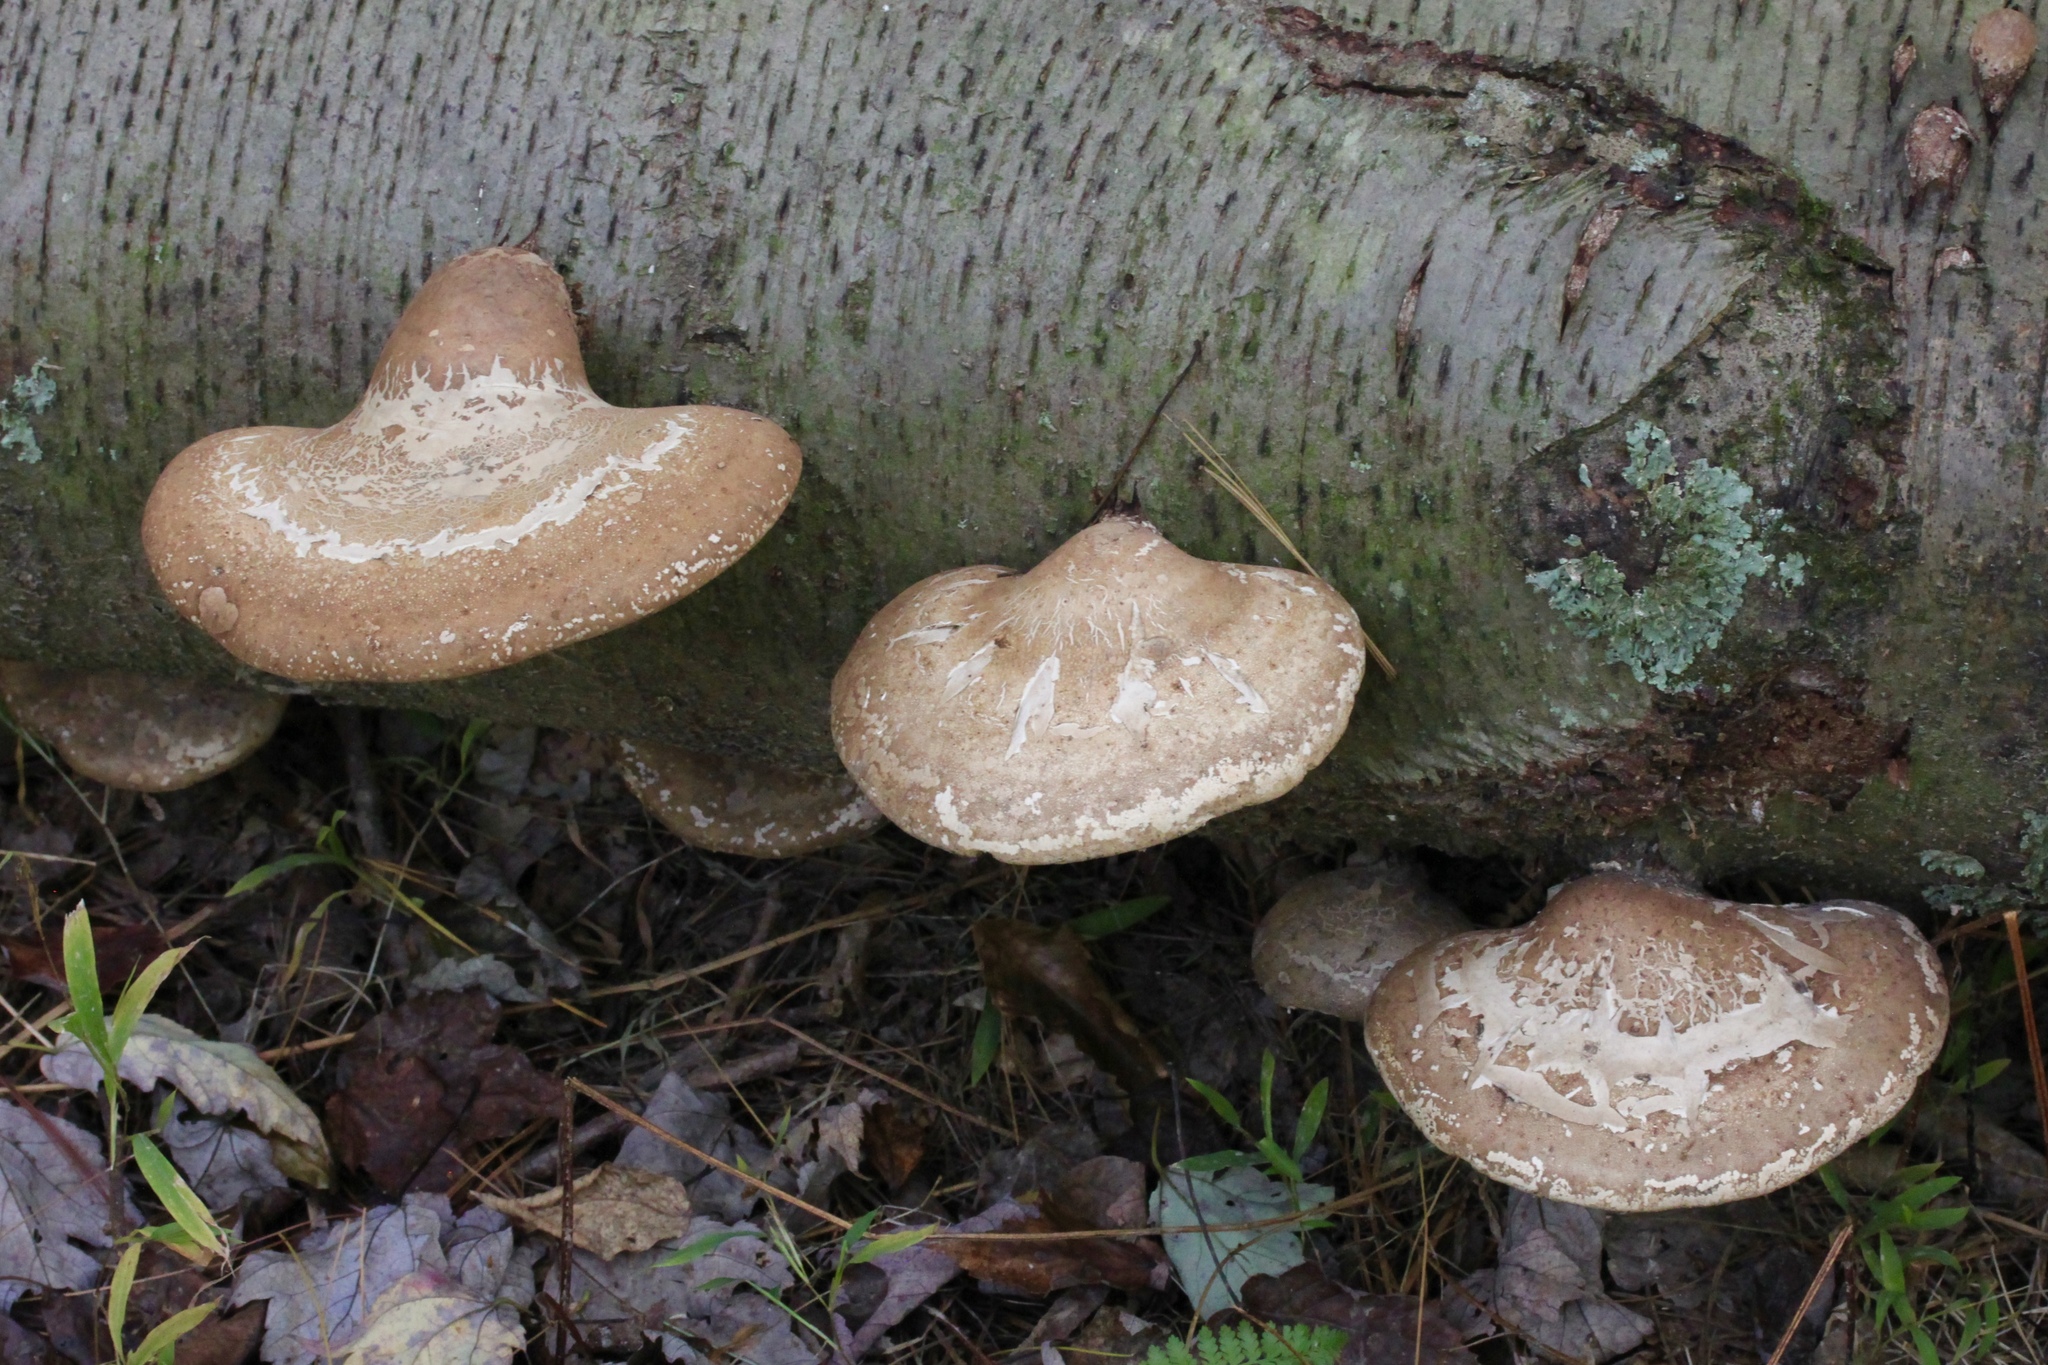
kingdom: Fungi
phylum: Basidiomycota
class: Agaricomycetes
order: Polyporales
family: Fomitopsidaceae
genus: Fomitopsis
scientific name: Fomitopsis betulina
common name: Birch polypore
